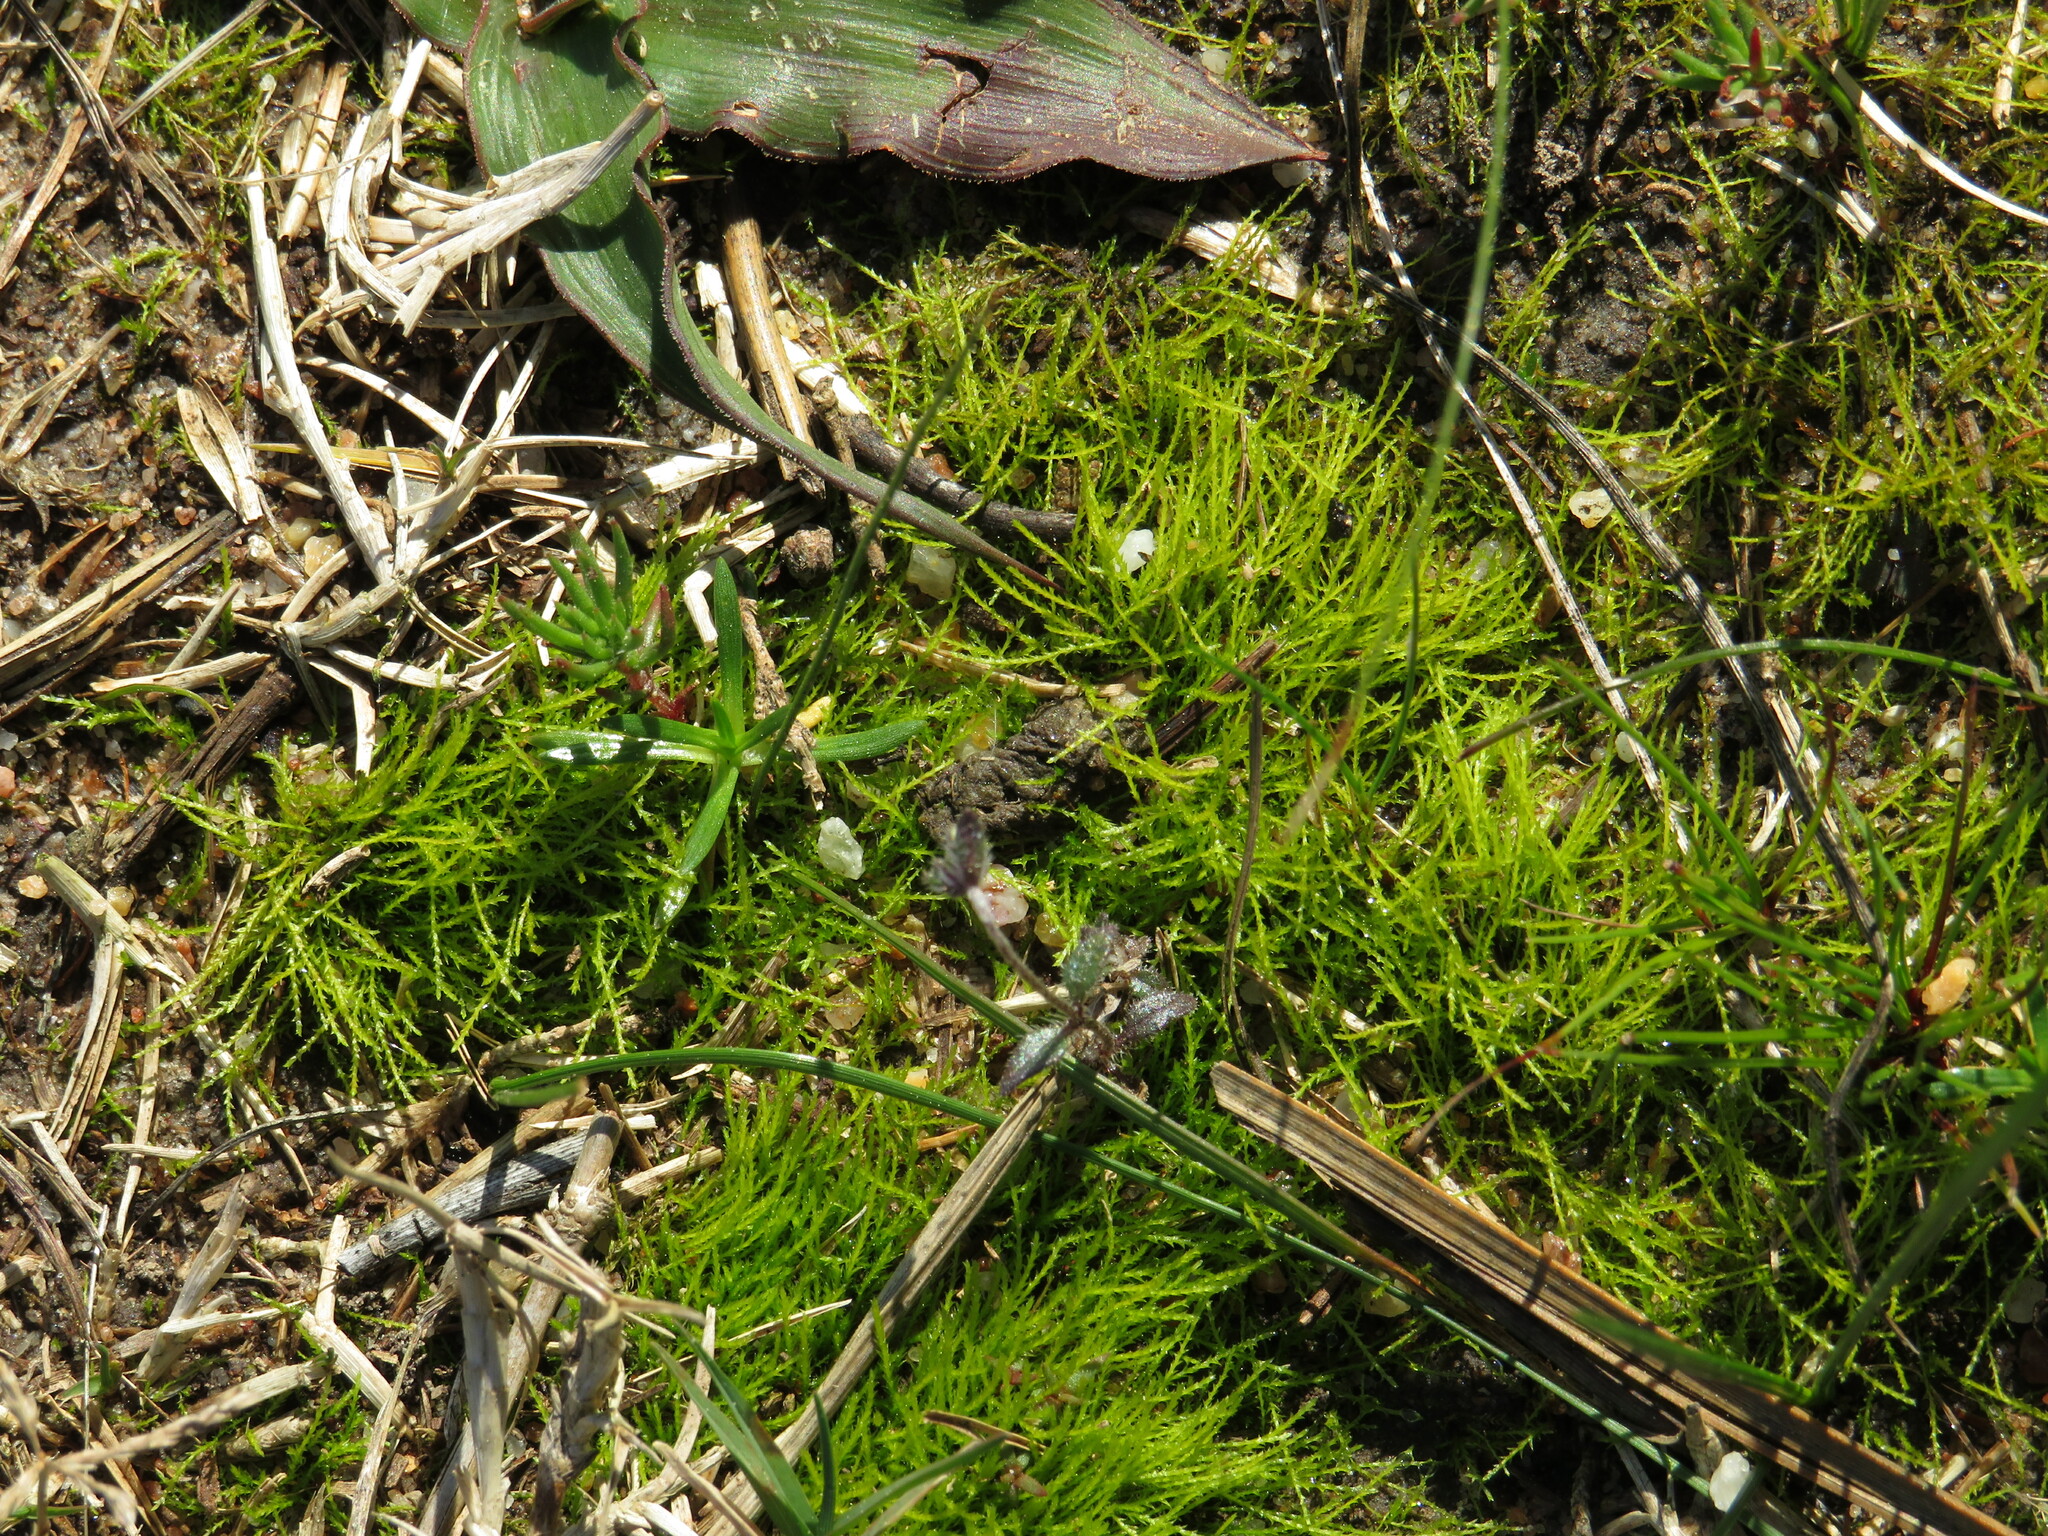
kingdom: Plantae
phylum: Bryophyta
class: Bryopsida
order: Dicranales
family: Ditrichaceae
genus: Pleuridium
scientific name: Pleuridium ecklonii
